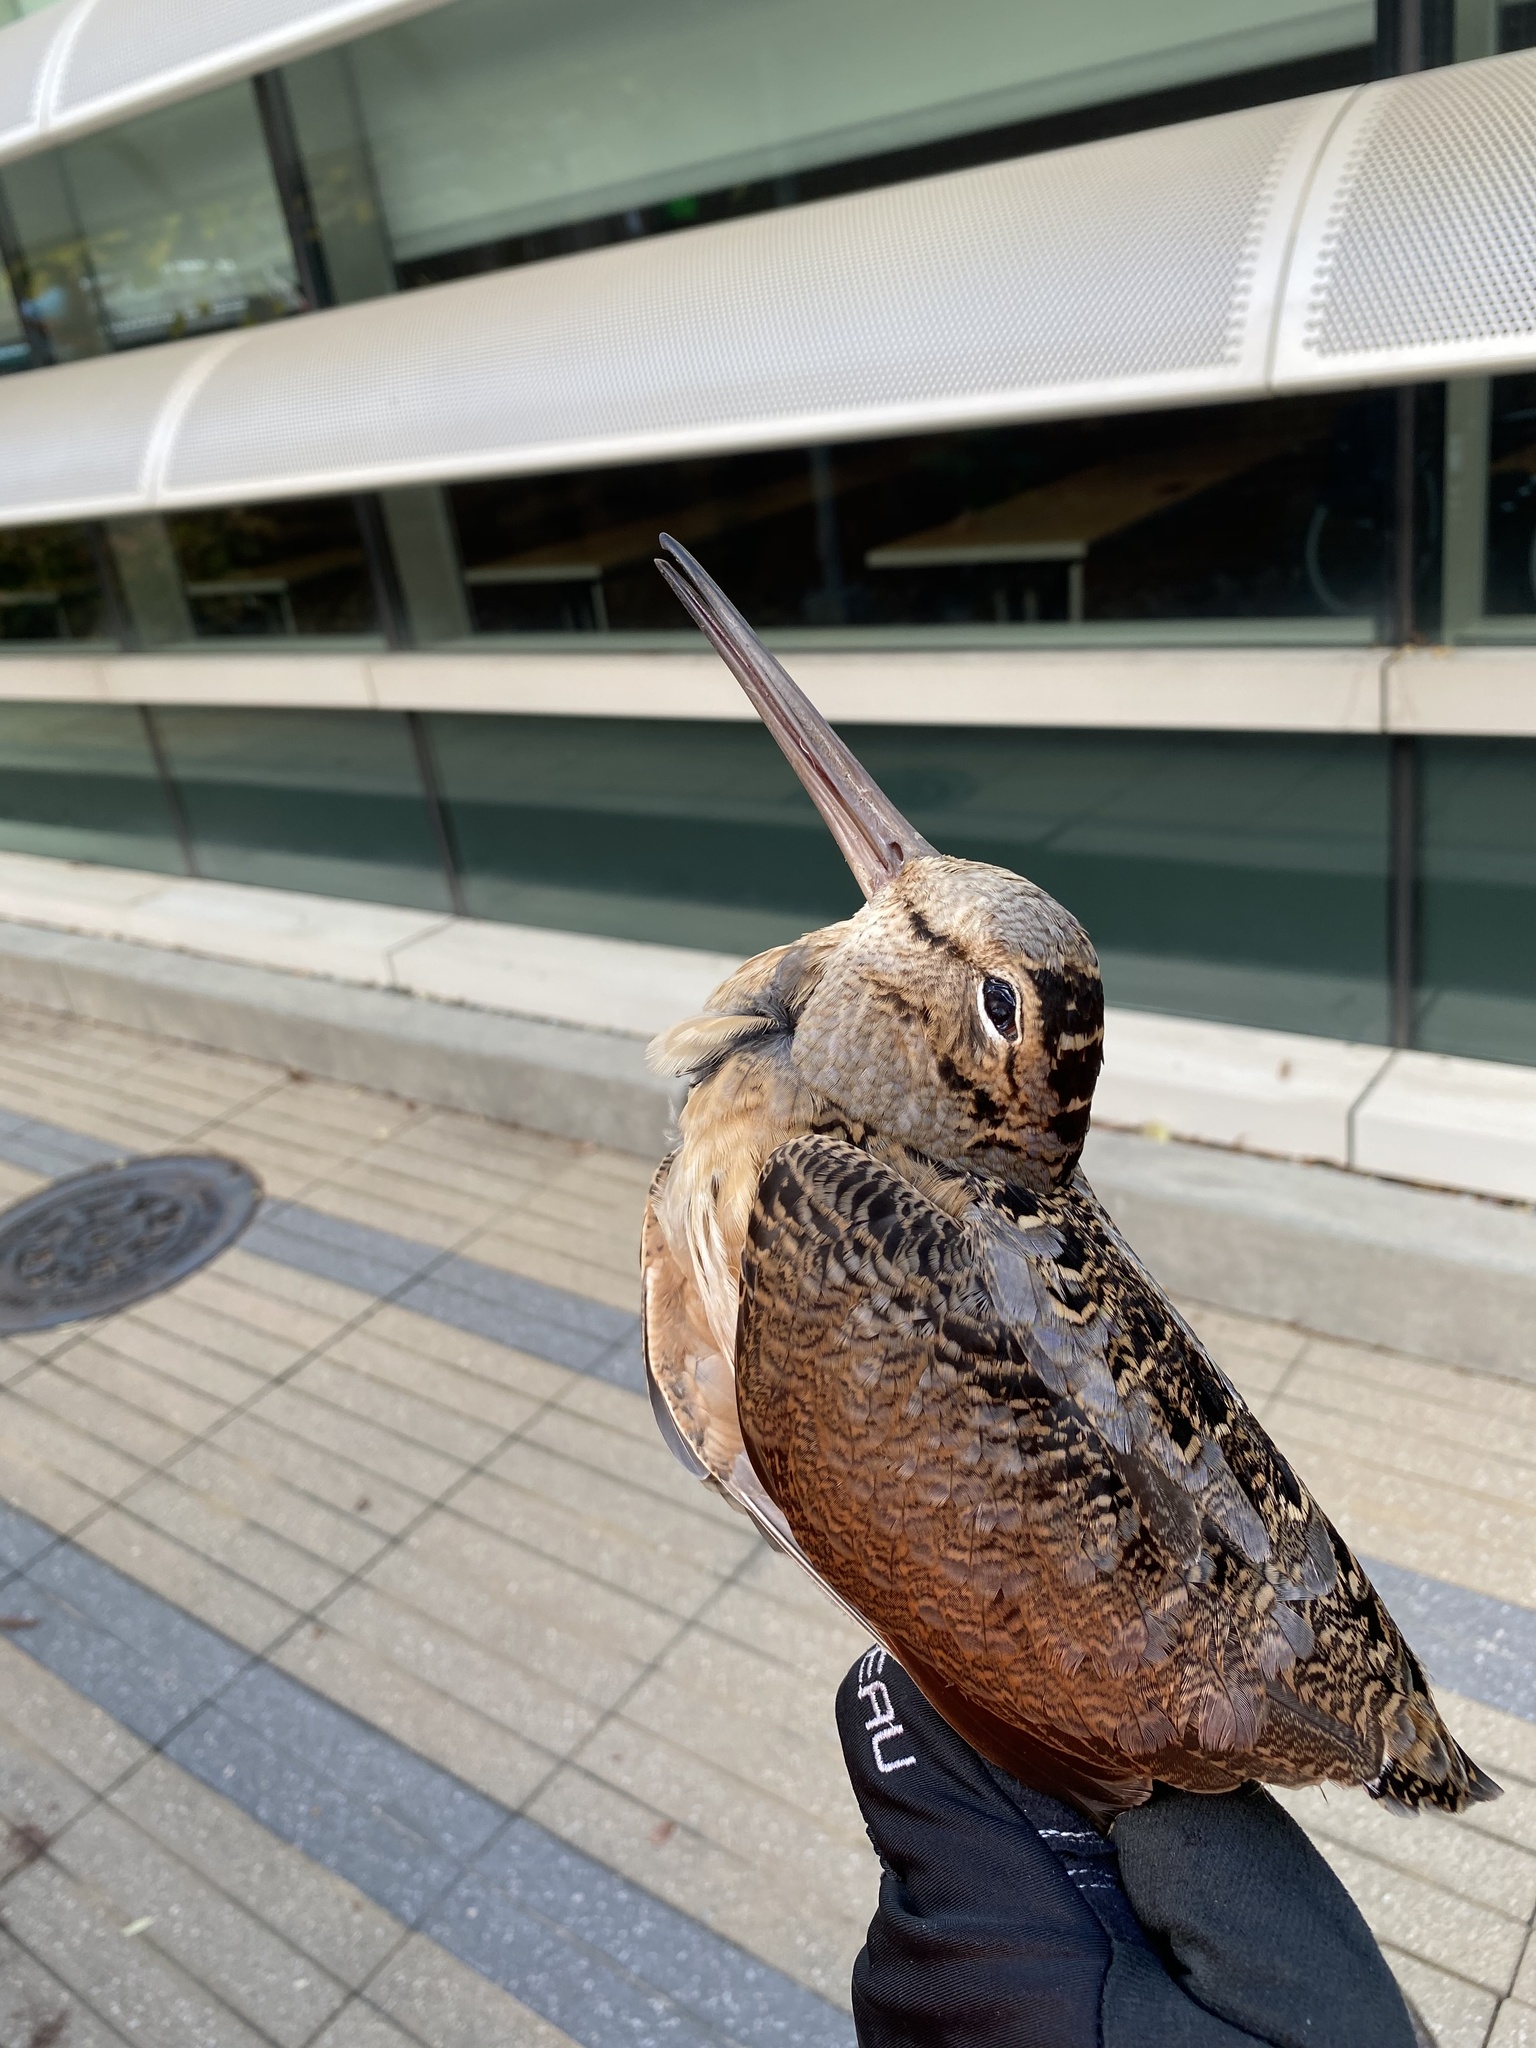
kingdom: Animalia
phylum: Chordata
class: Aves
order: Charadriiformes
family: Scolopacidae
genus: Scolopax
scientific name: Scolopax minor
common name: American woodcock
